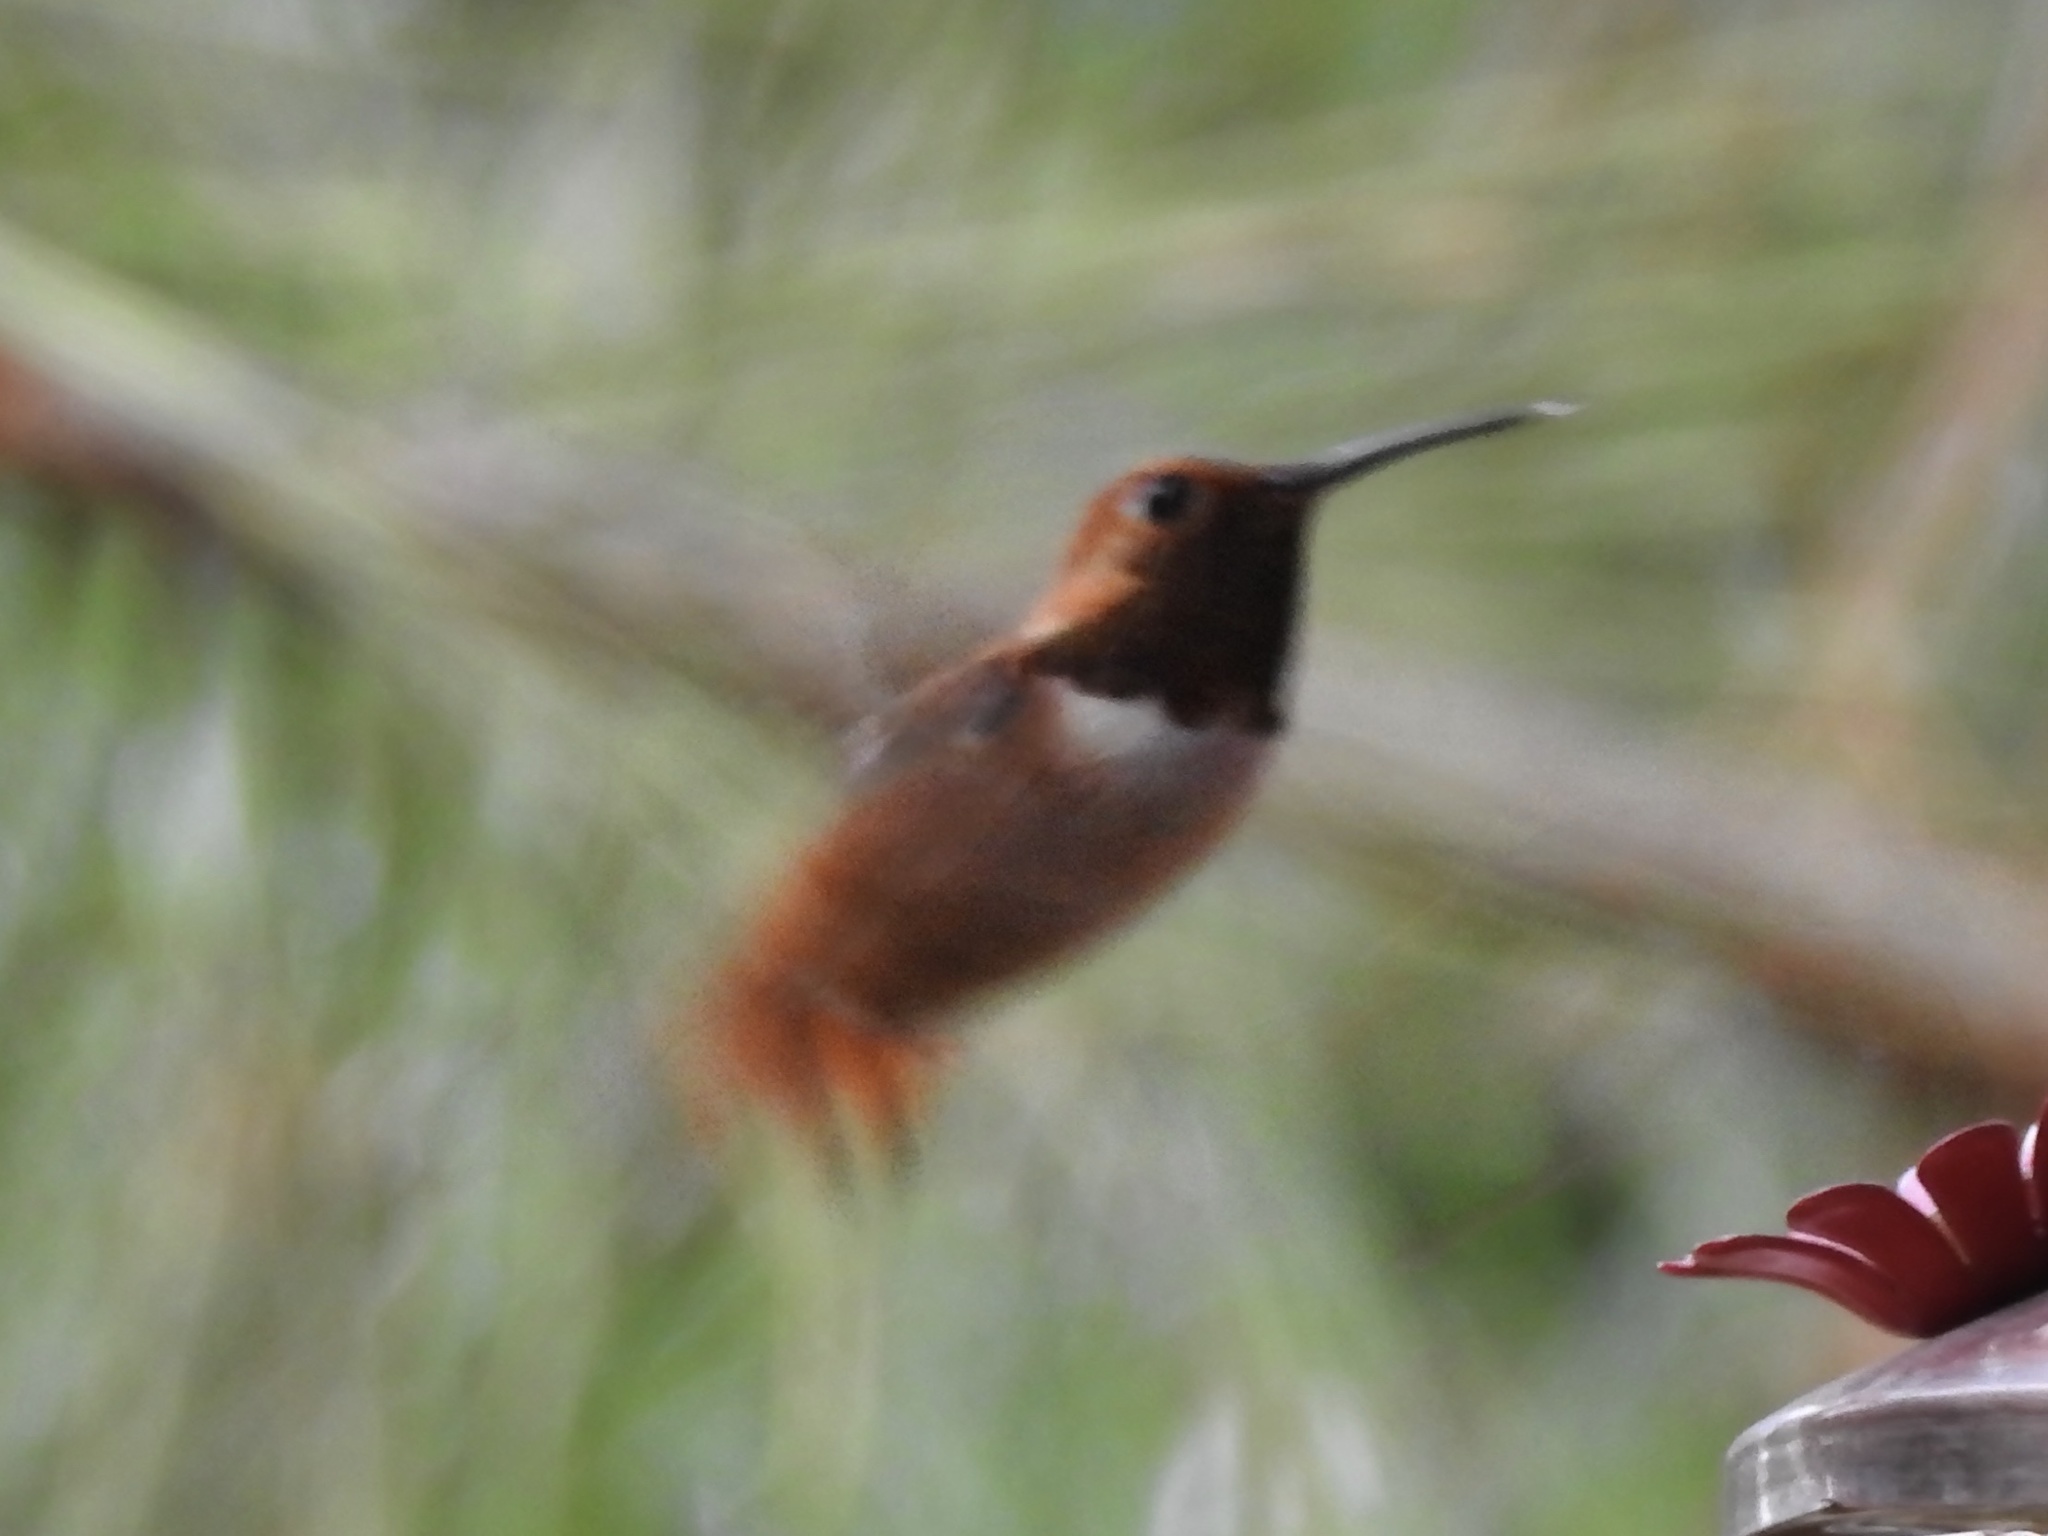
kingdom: Animalia
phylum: Chordata
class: Aves
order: Apodiformes
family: Trochilidae
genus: Selasphorus
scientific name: Selasphorus rufus
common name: Rufous hummingbird
